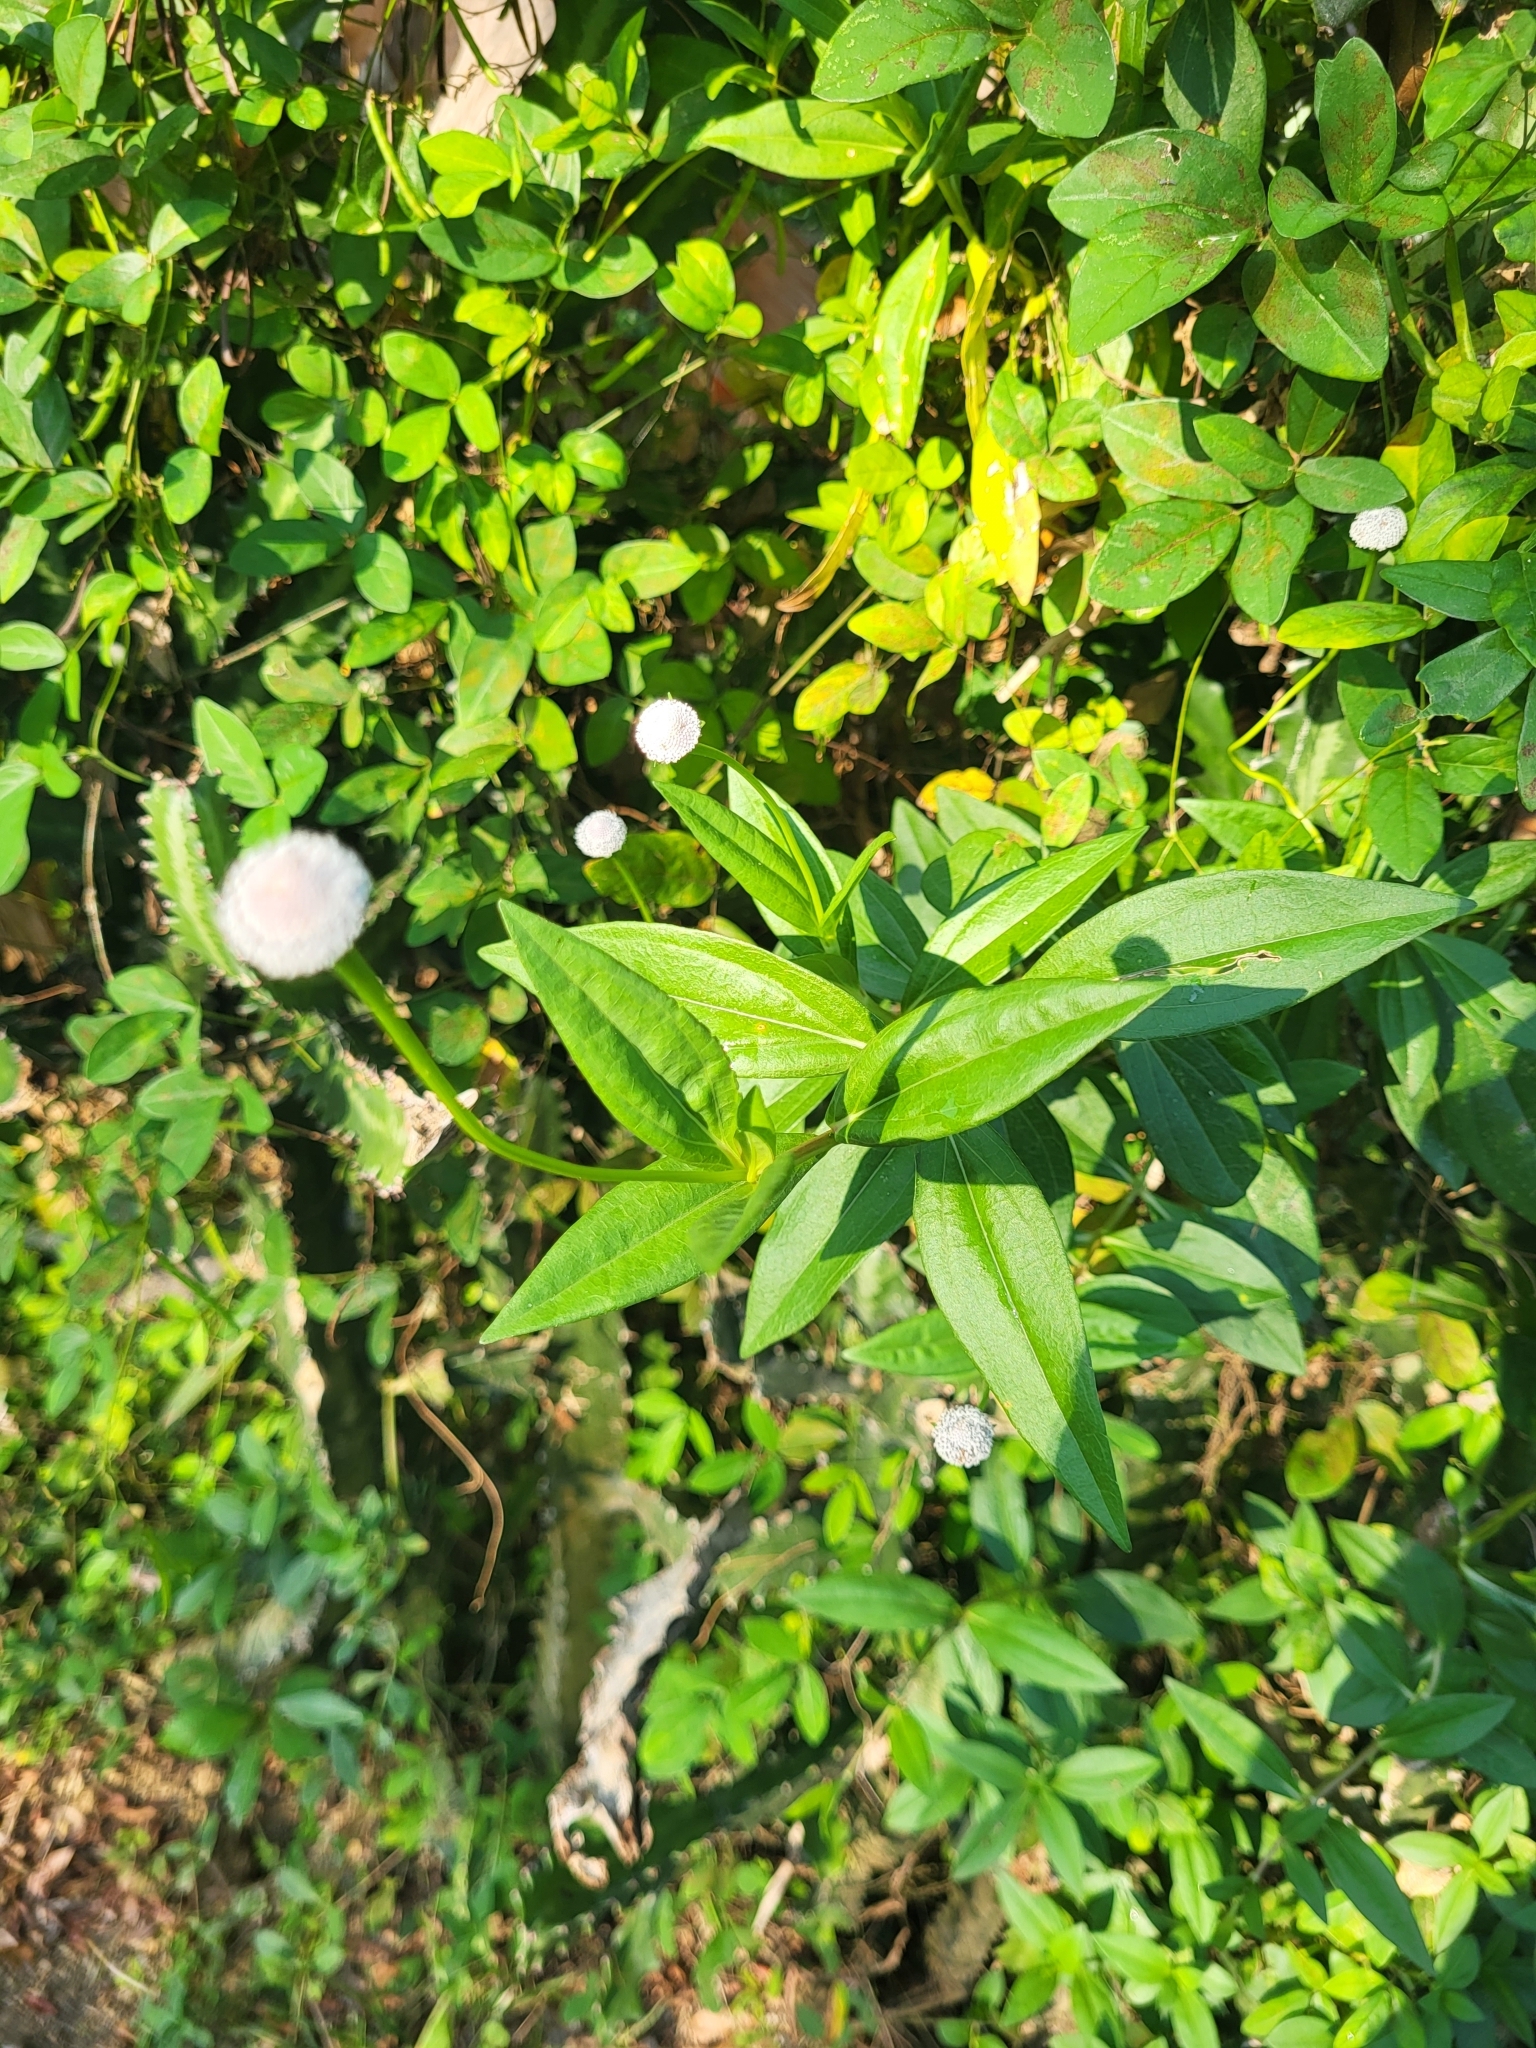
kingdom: Plantae
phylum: Tracheophyta
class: Magnoliopsida
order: Asterales
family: Asteraceae
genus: Spilanthes
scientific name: Spilanthes urens
